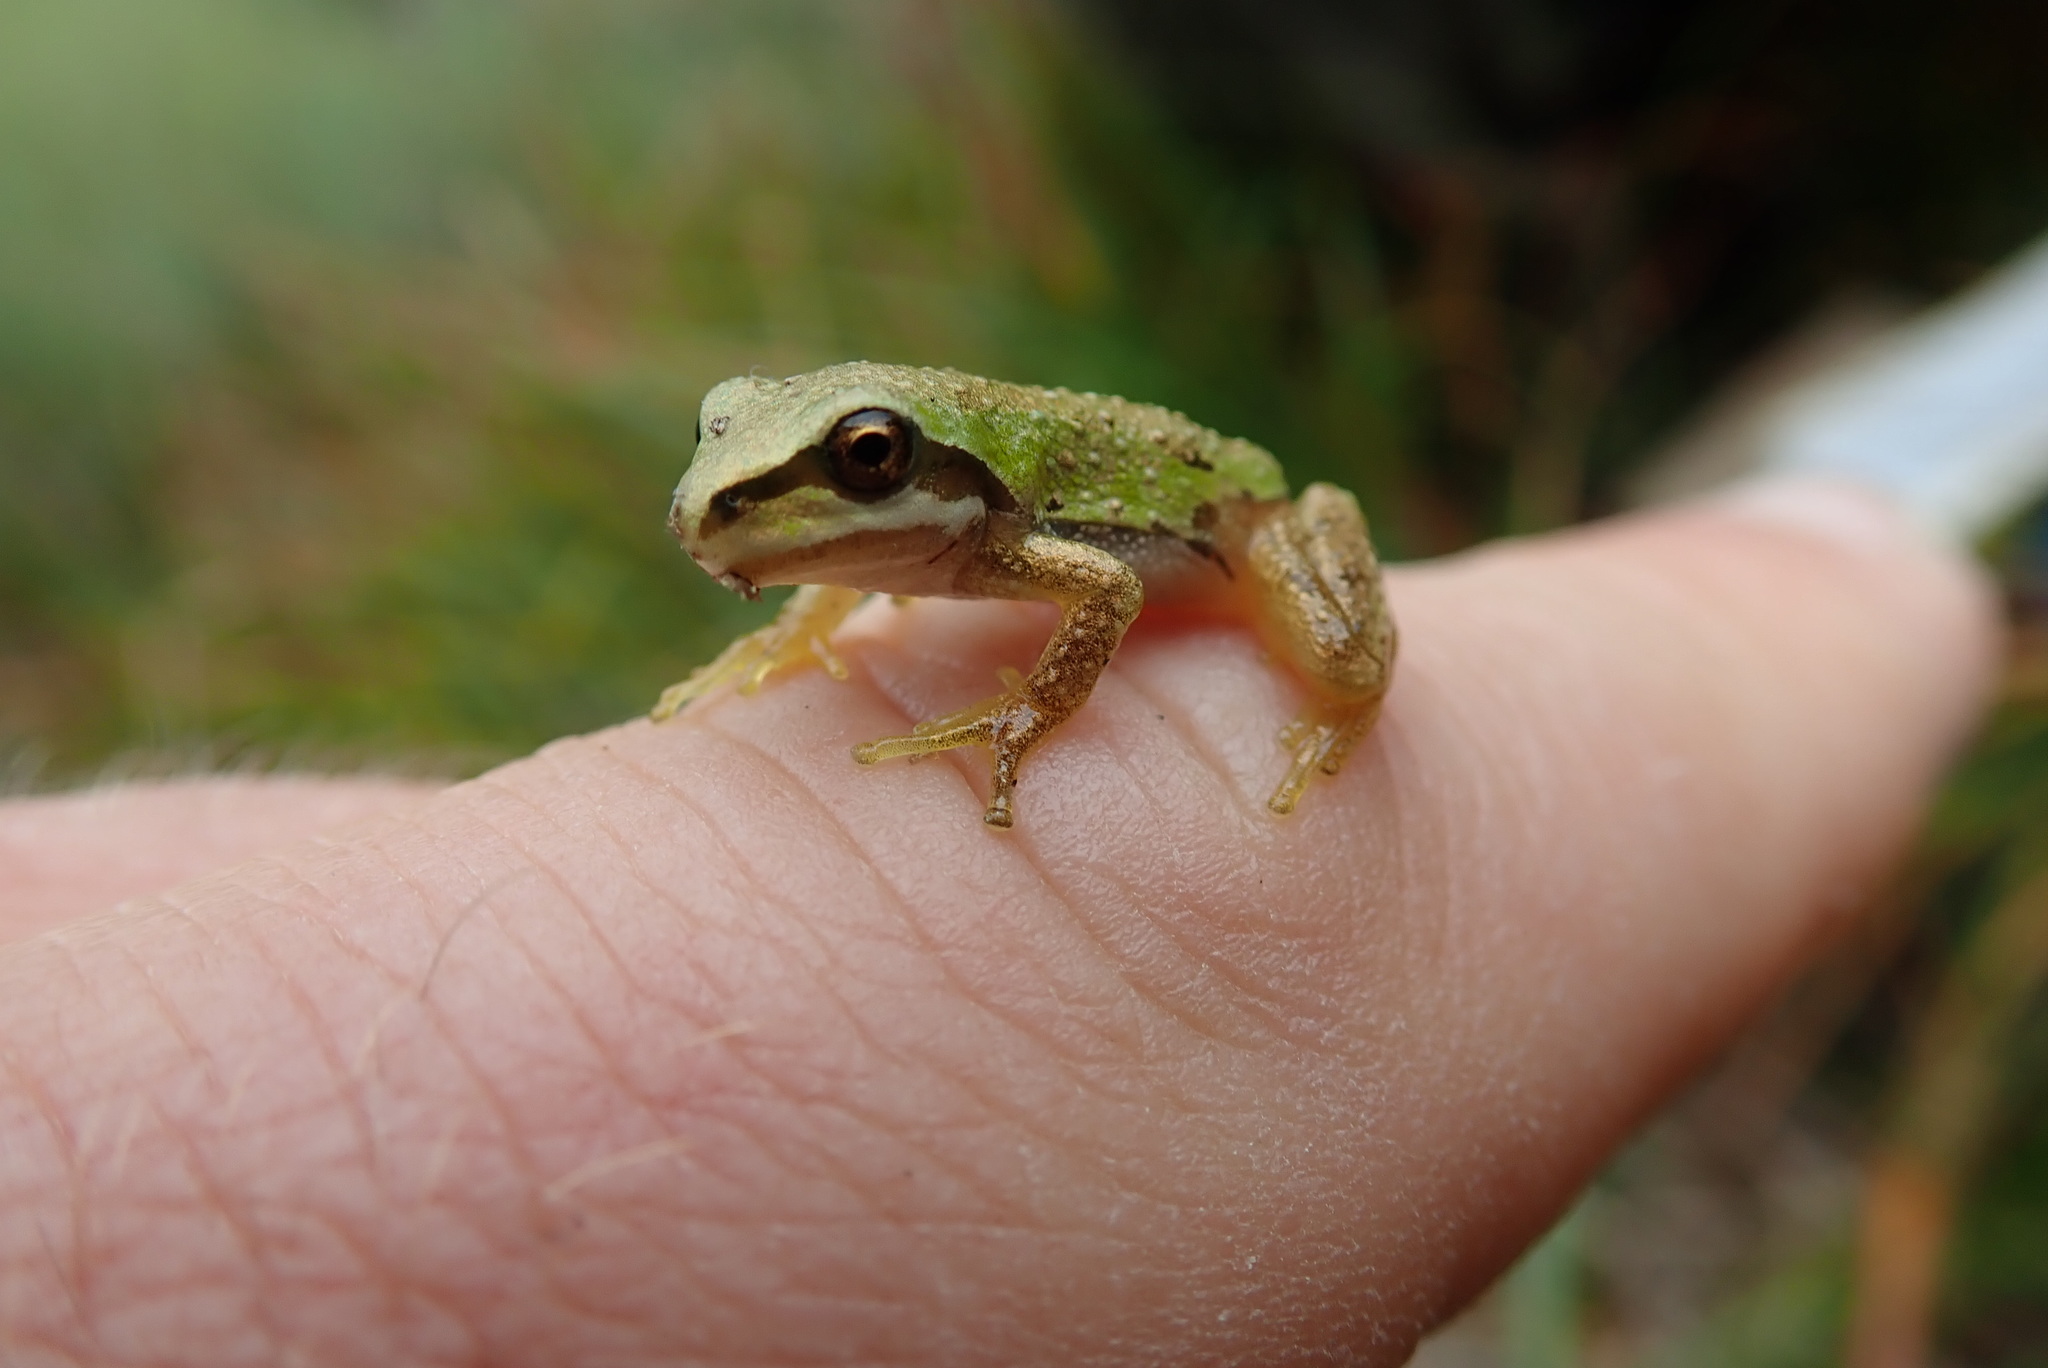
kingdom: Animalia
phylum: Chordata
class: Amphibia
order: Anura
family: Hylidae
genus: Pseudacris
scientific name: Pseudacris regilla
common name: Pacific chorus frog
